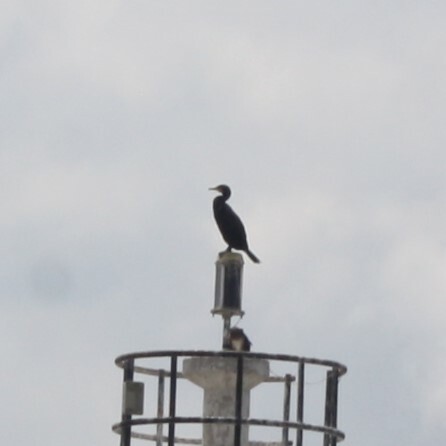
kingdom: Animalia
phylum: Chordata
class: Aves
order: Suliformes
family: Phalacrocoracidae
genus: Phalacrocorax
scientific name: Phalacrocorax carbo
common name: Great cormorant
